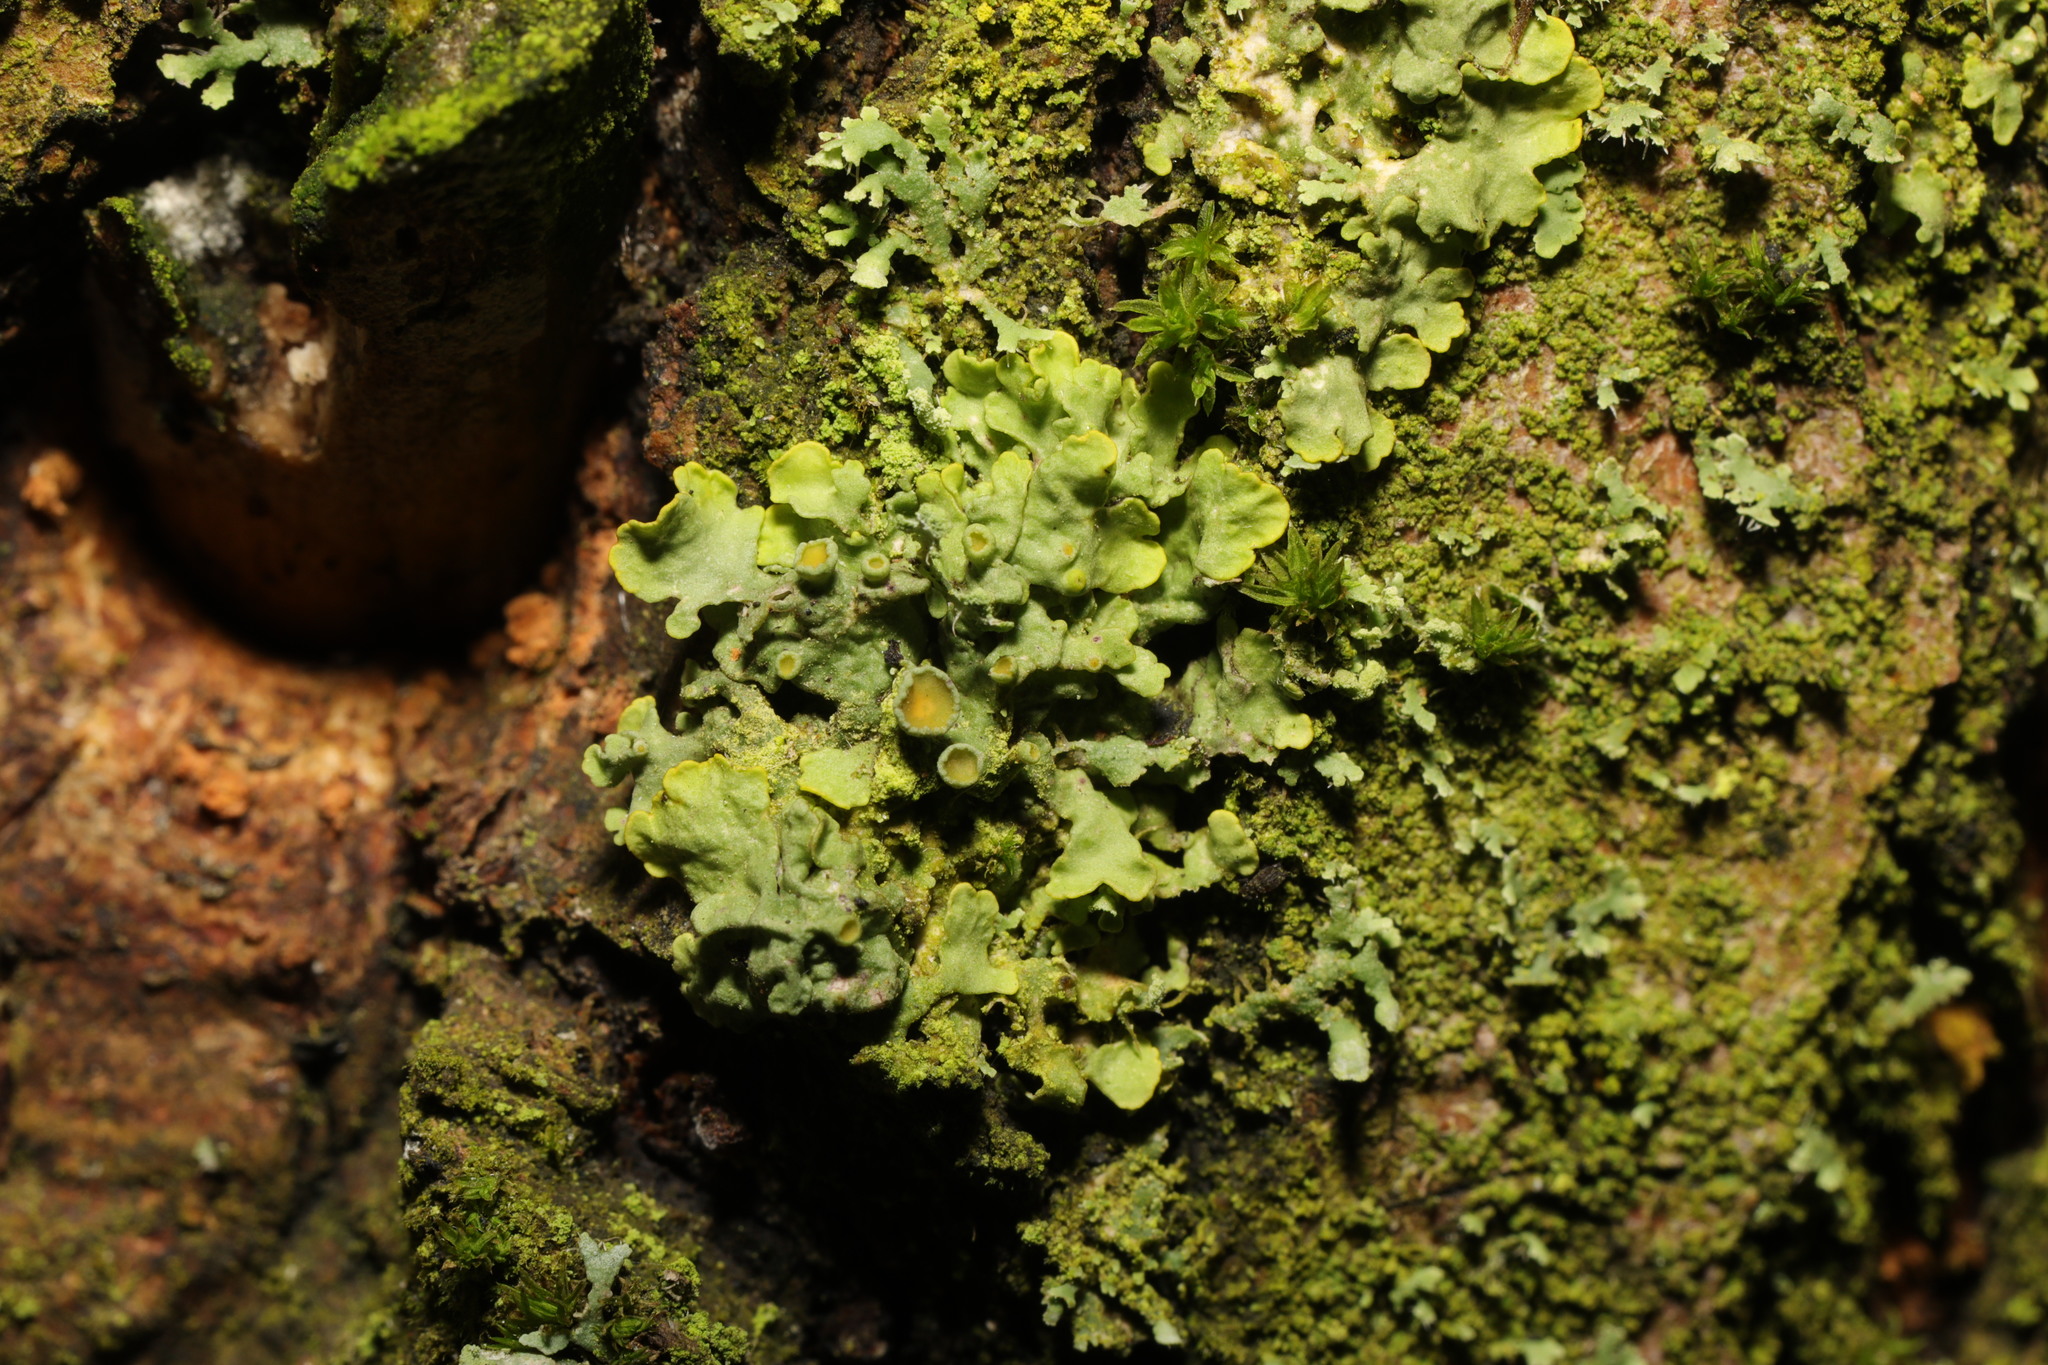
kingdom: Fungi
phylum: Ascomycota
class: Lecanoromycetes
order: Teloschistales
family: Teloschistaceae
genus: Xanthoria
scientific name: Xanthoria parietina
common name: Common orange lichen
